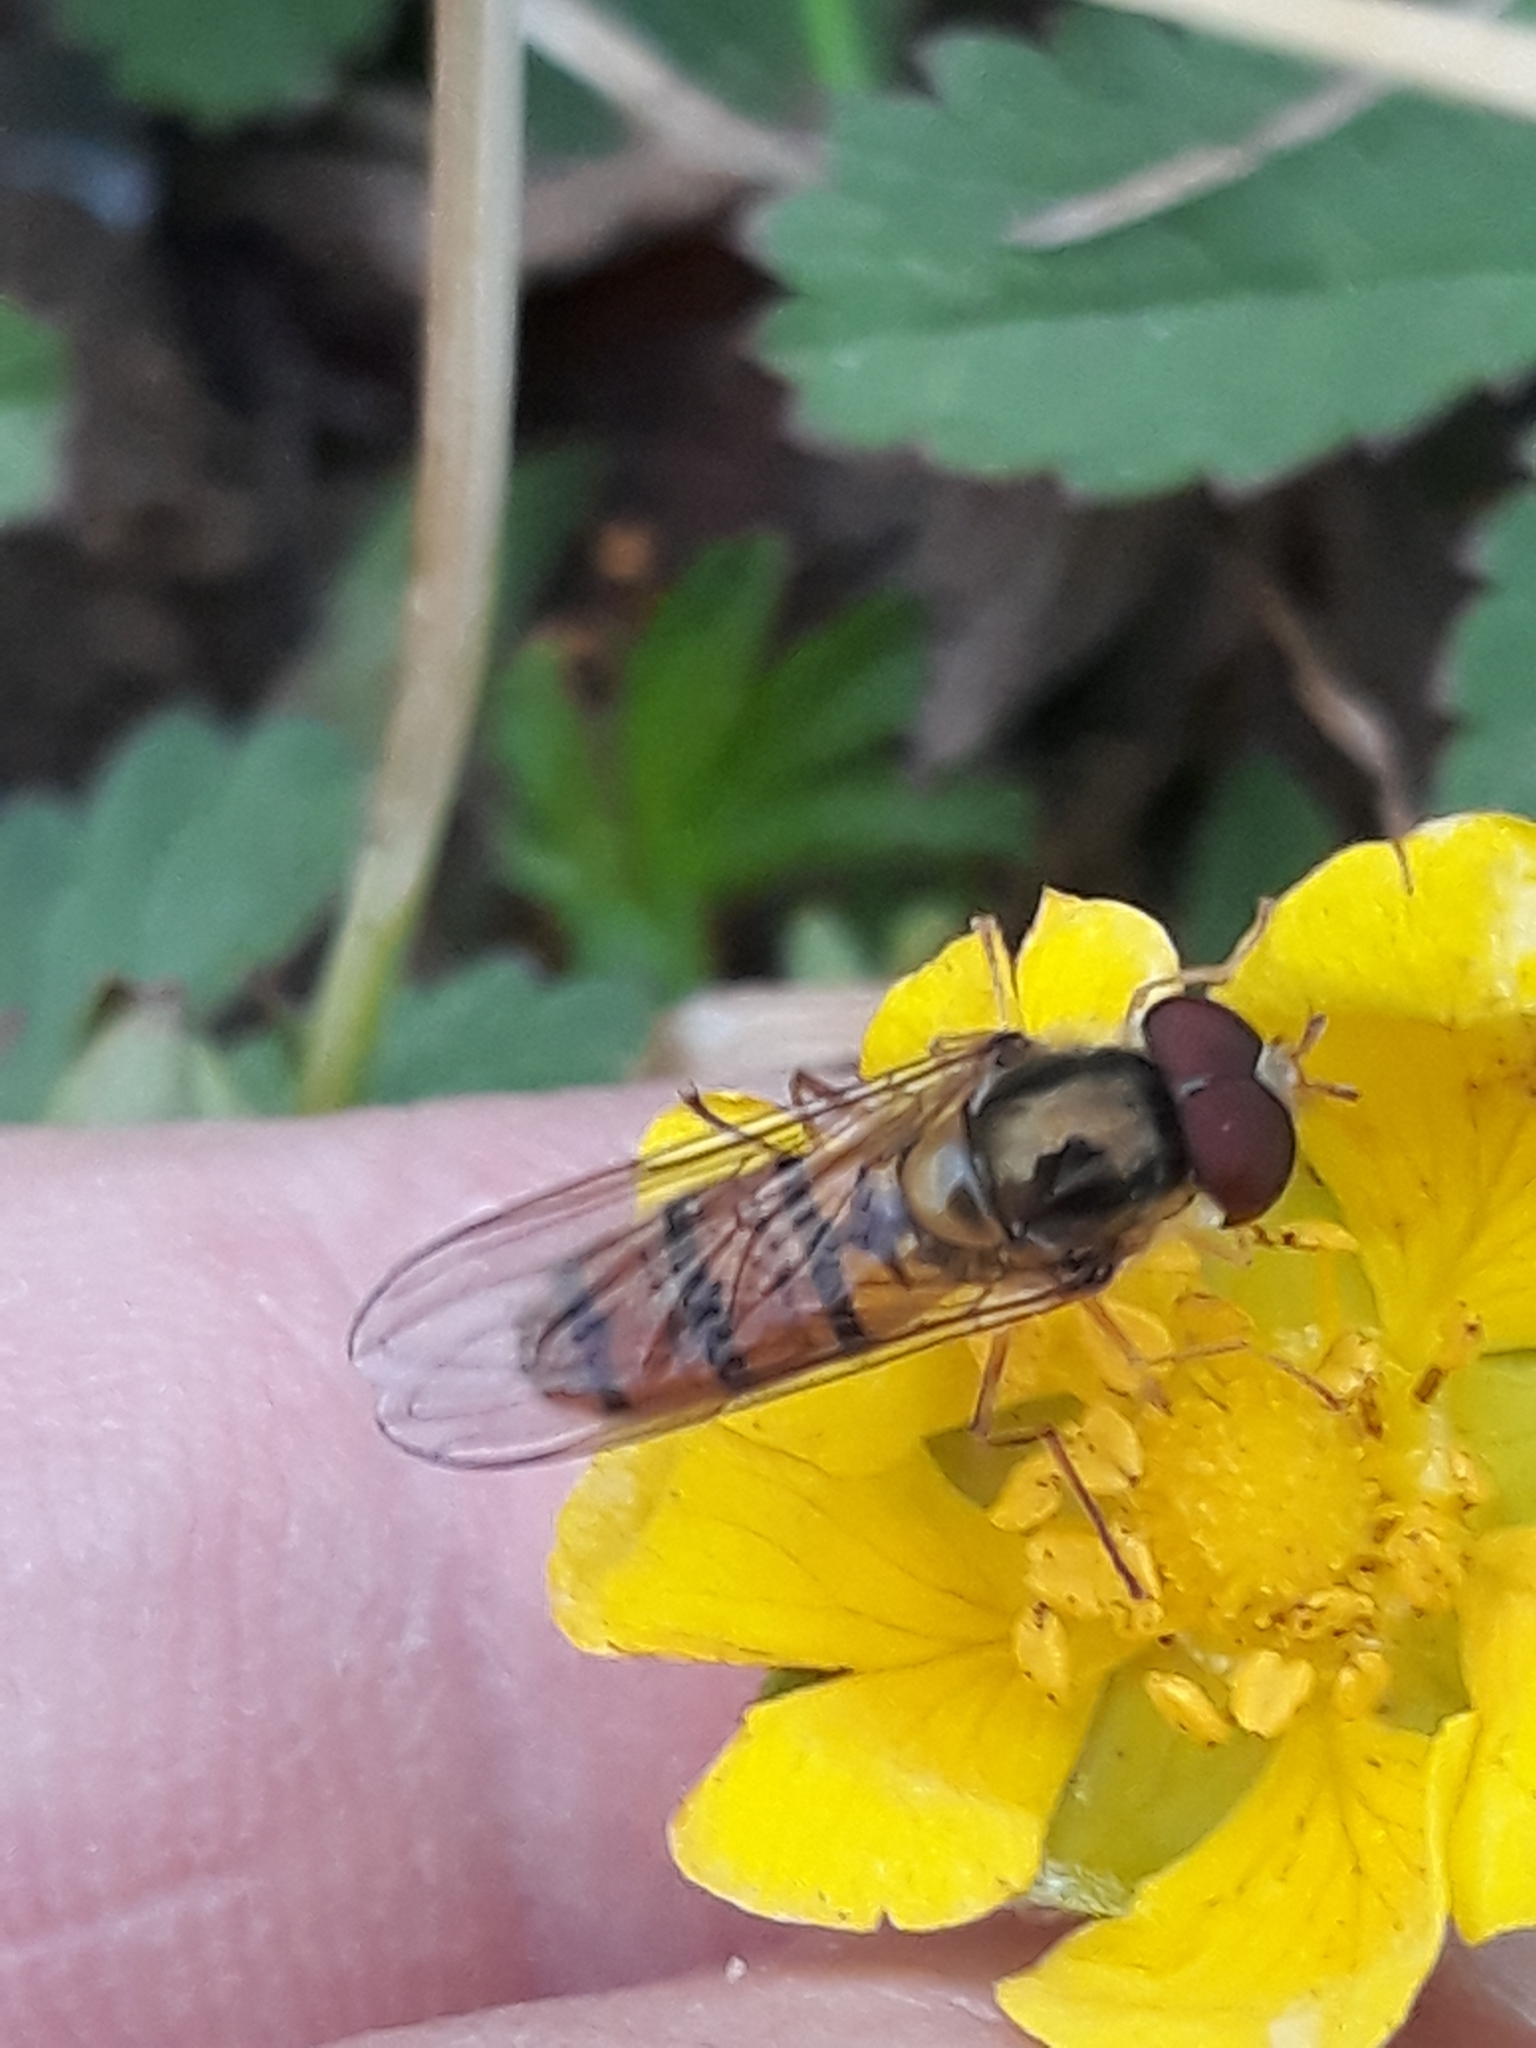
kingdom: Animalia
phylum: Arthropoda
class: Insecta
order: Diptera
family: Syrphidae
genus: Episyrphus
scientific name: Episyrphus balteatus
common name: Marmalade hoverfly
